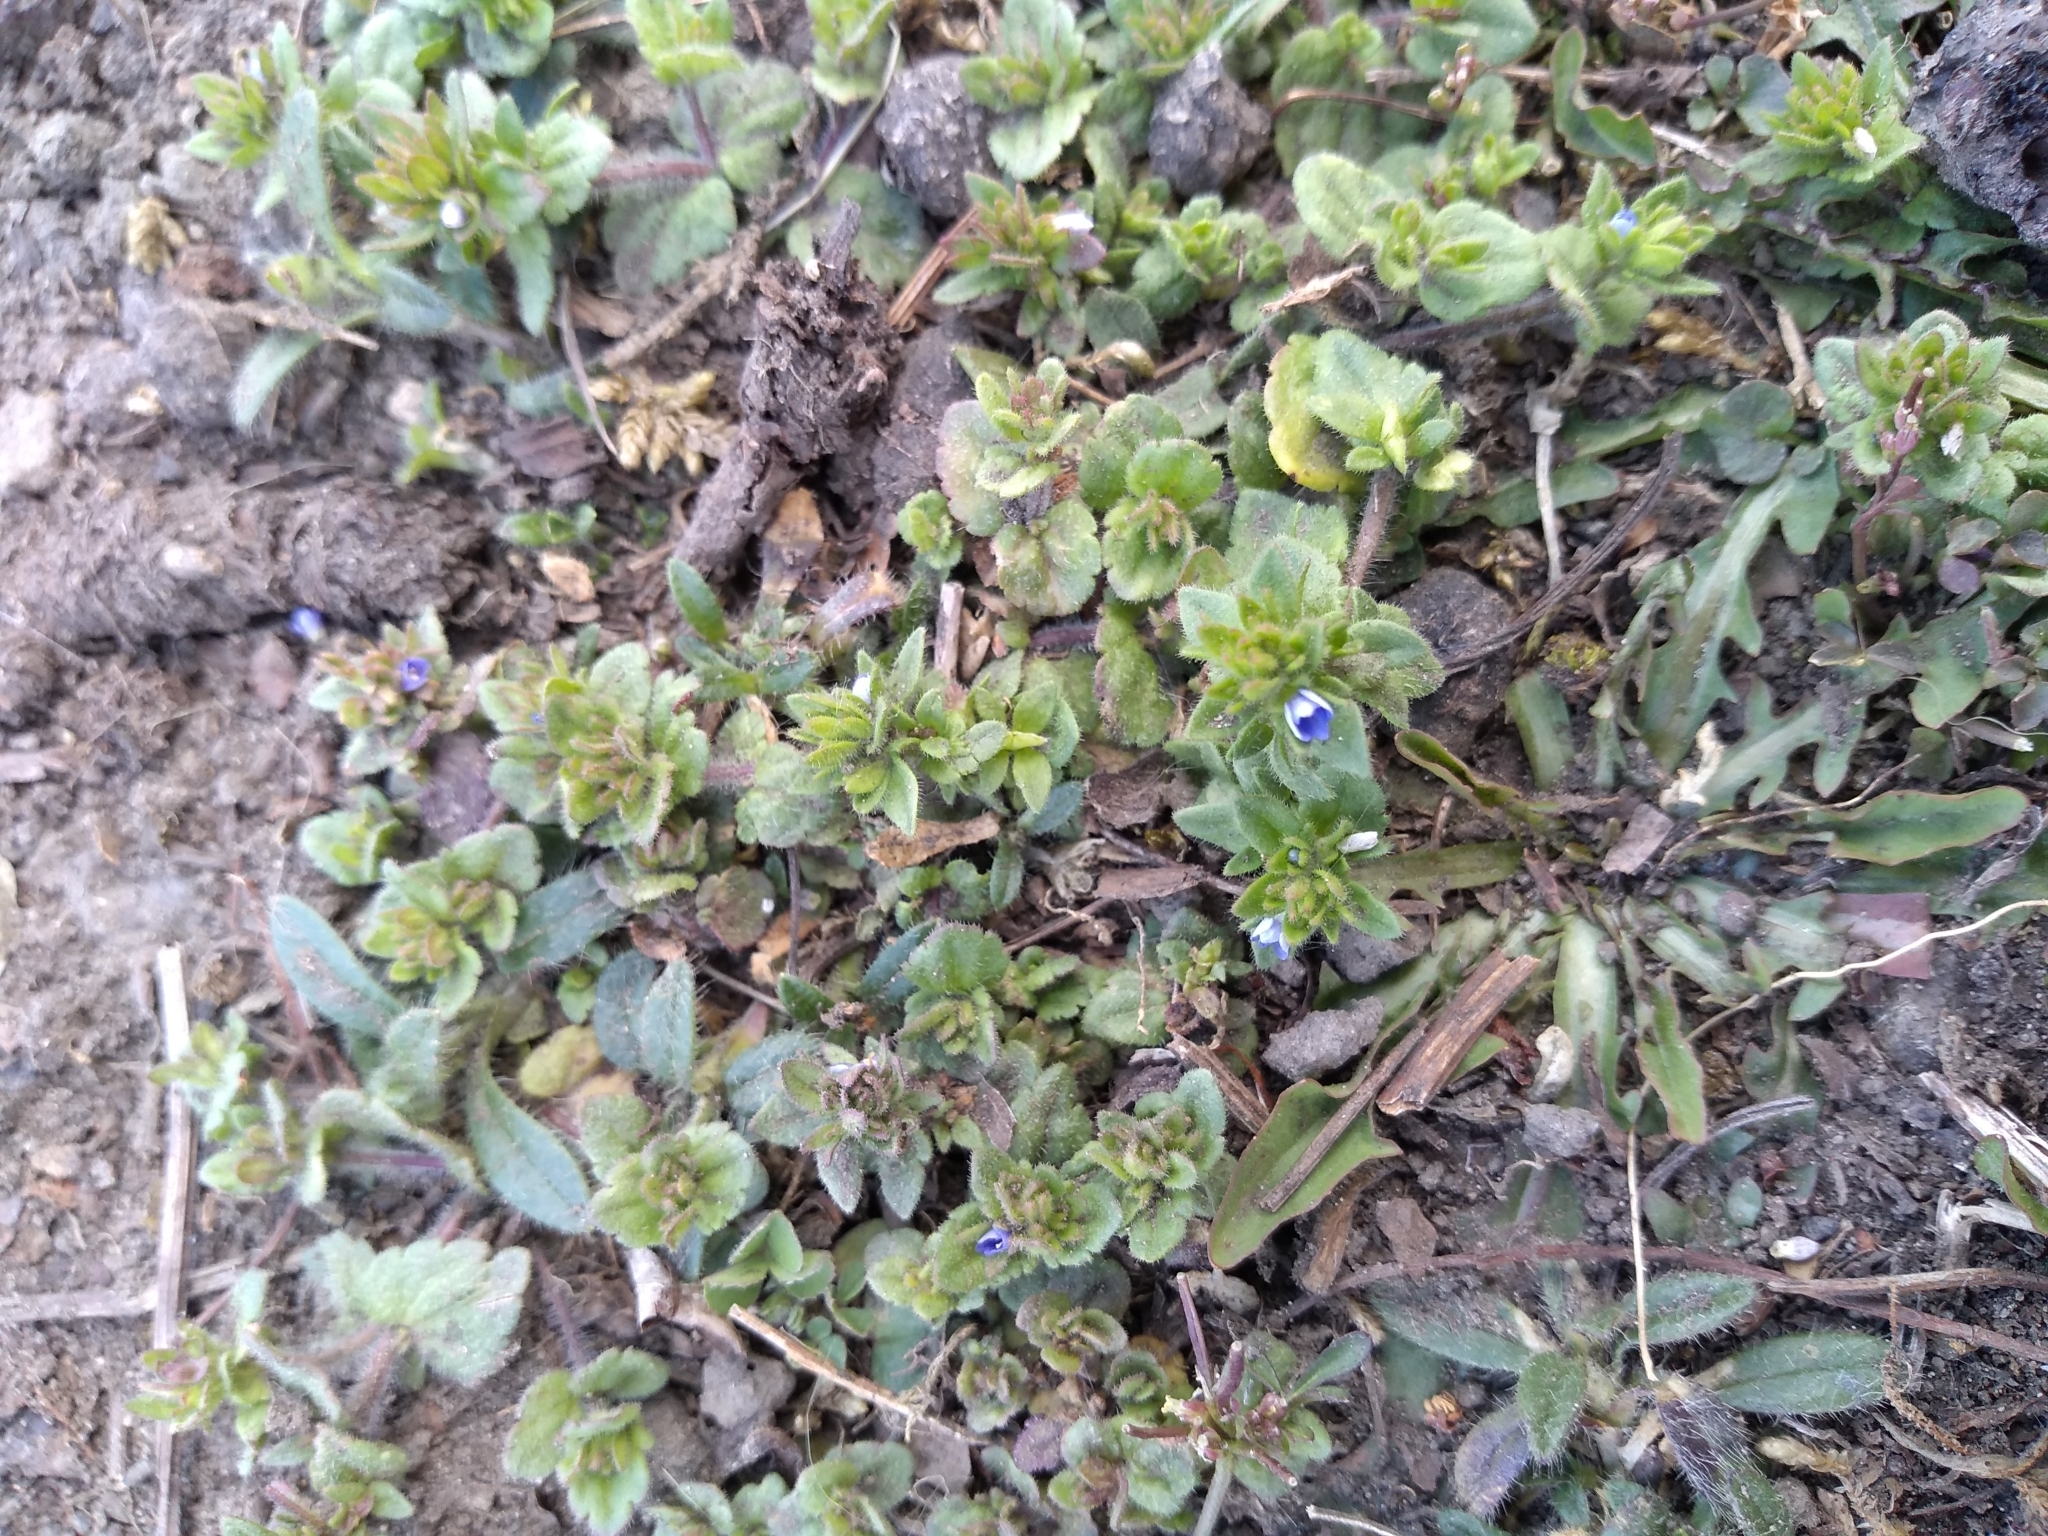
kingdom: Plantae
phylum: Tracheophyta
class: Magnoliopsida
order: Lamiales
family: Plantaginaceae
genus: Veronica
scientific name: Veronica arvensis
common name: Corn speedwell
